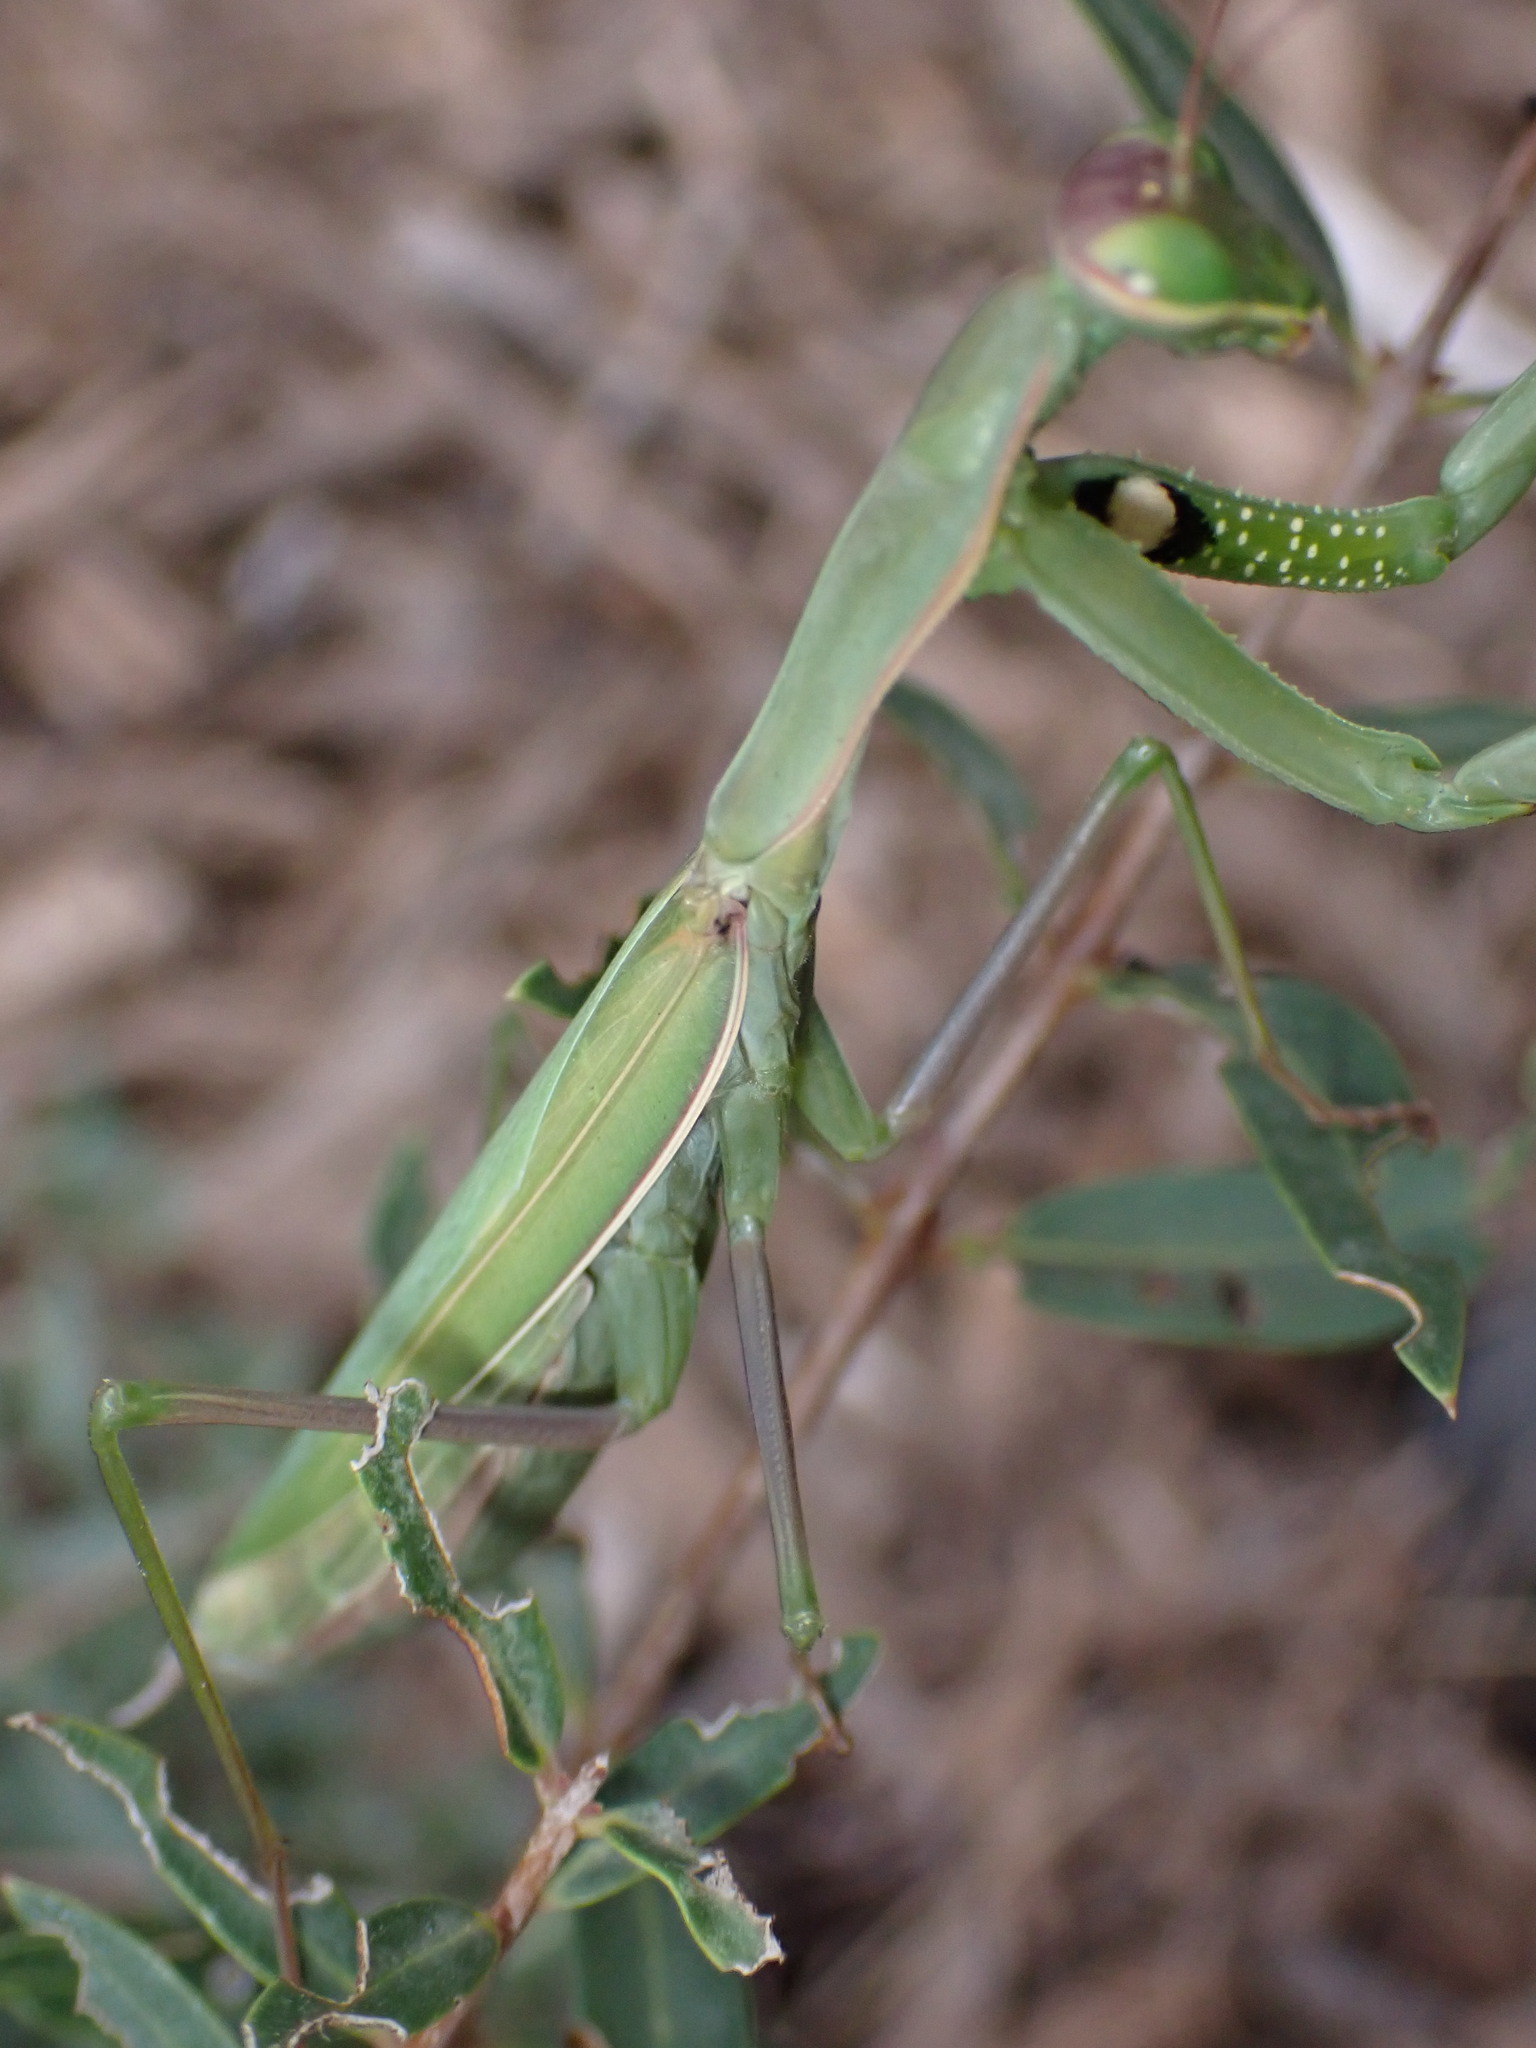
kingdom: Animalia
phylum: Arthropoda
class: Insecta
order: Mantodea
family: Mantidae
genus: Mantis
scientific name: Mantis religiosa
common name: Praying mantis
